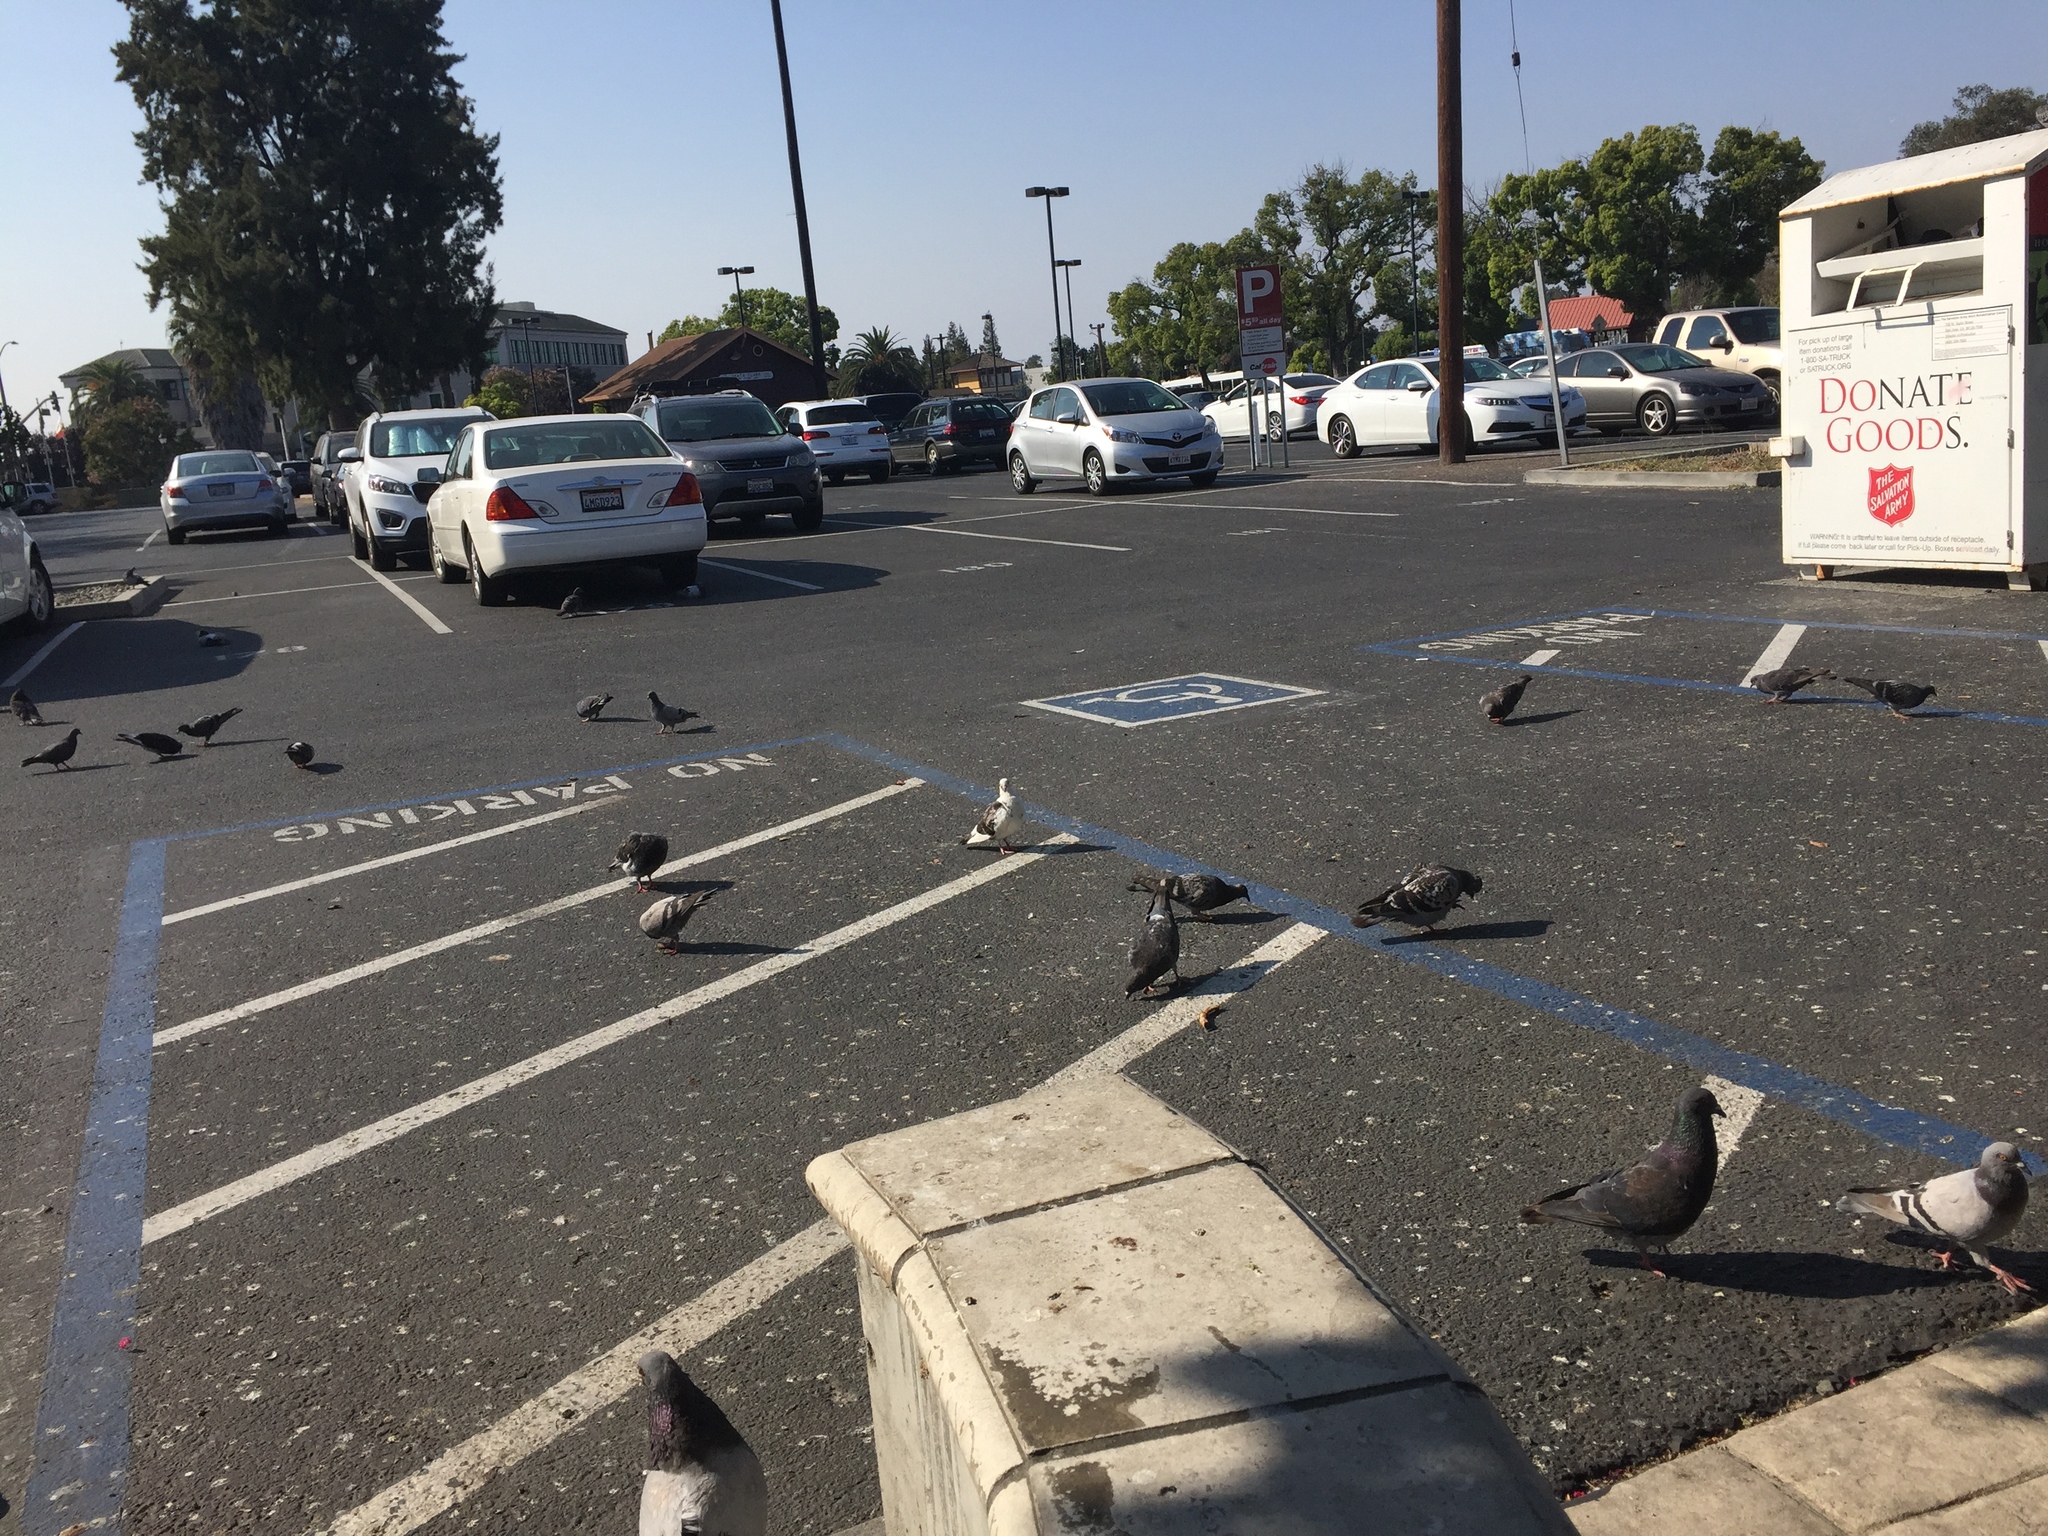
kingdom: Animalia
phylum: Chordata
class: Aves
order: Columbiformes
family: Columbidae
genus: Columba
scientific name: Columba livia
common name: Rock pigeon
